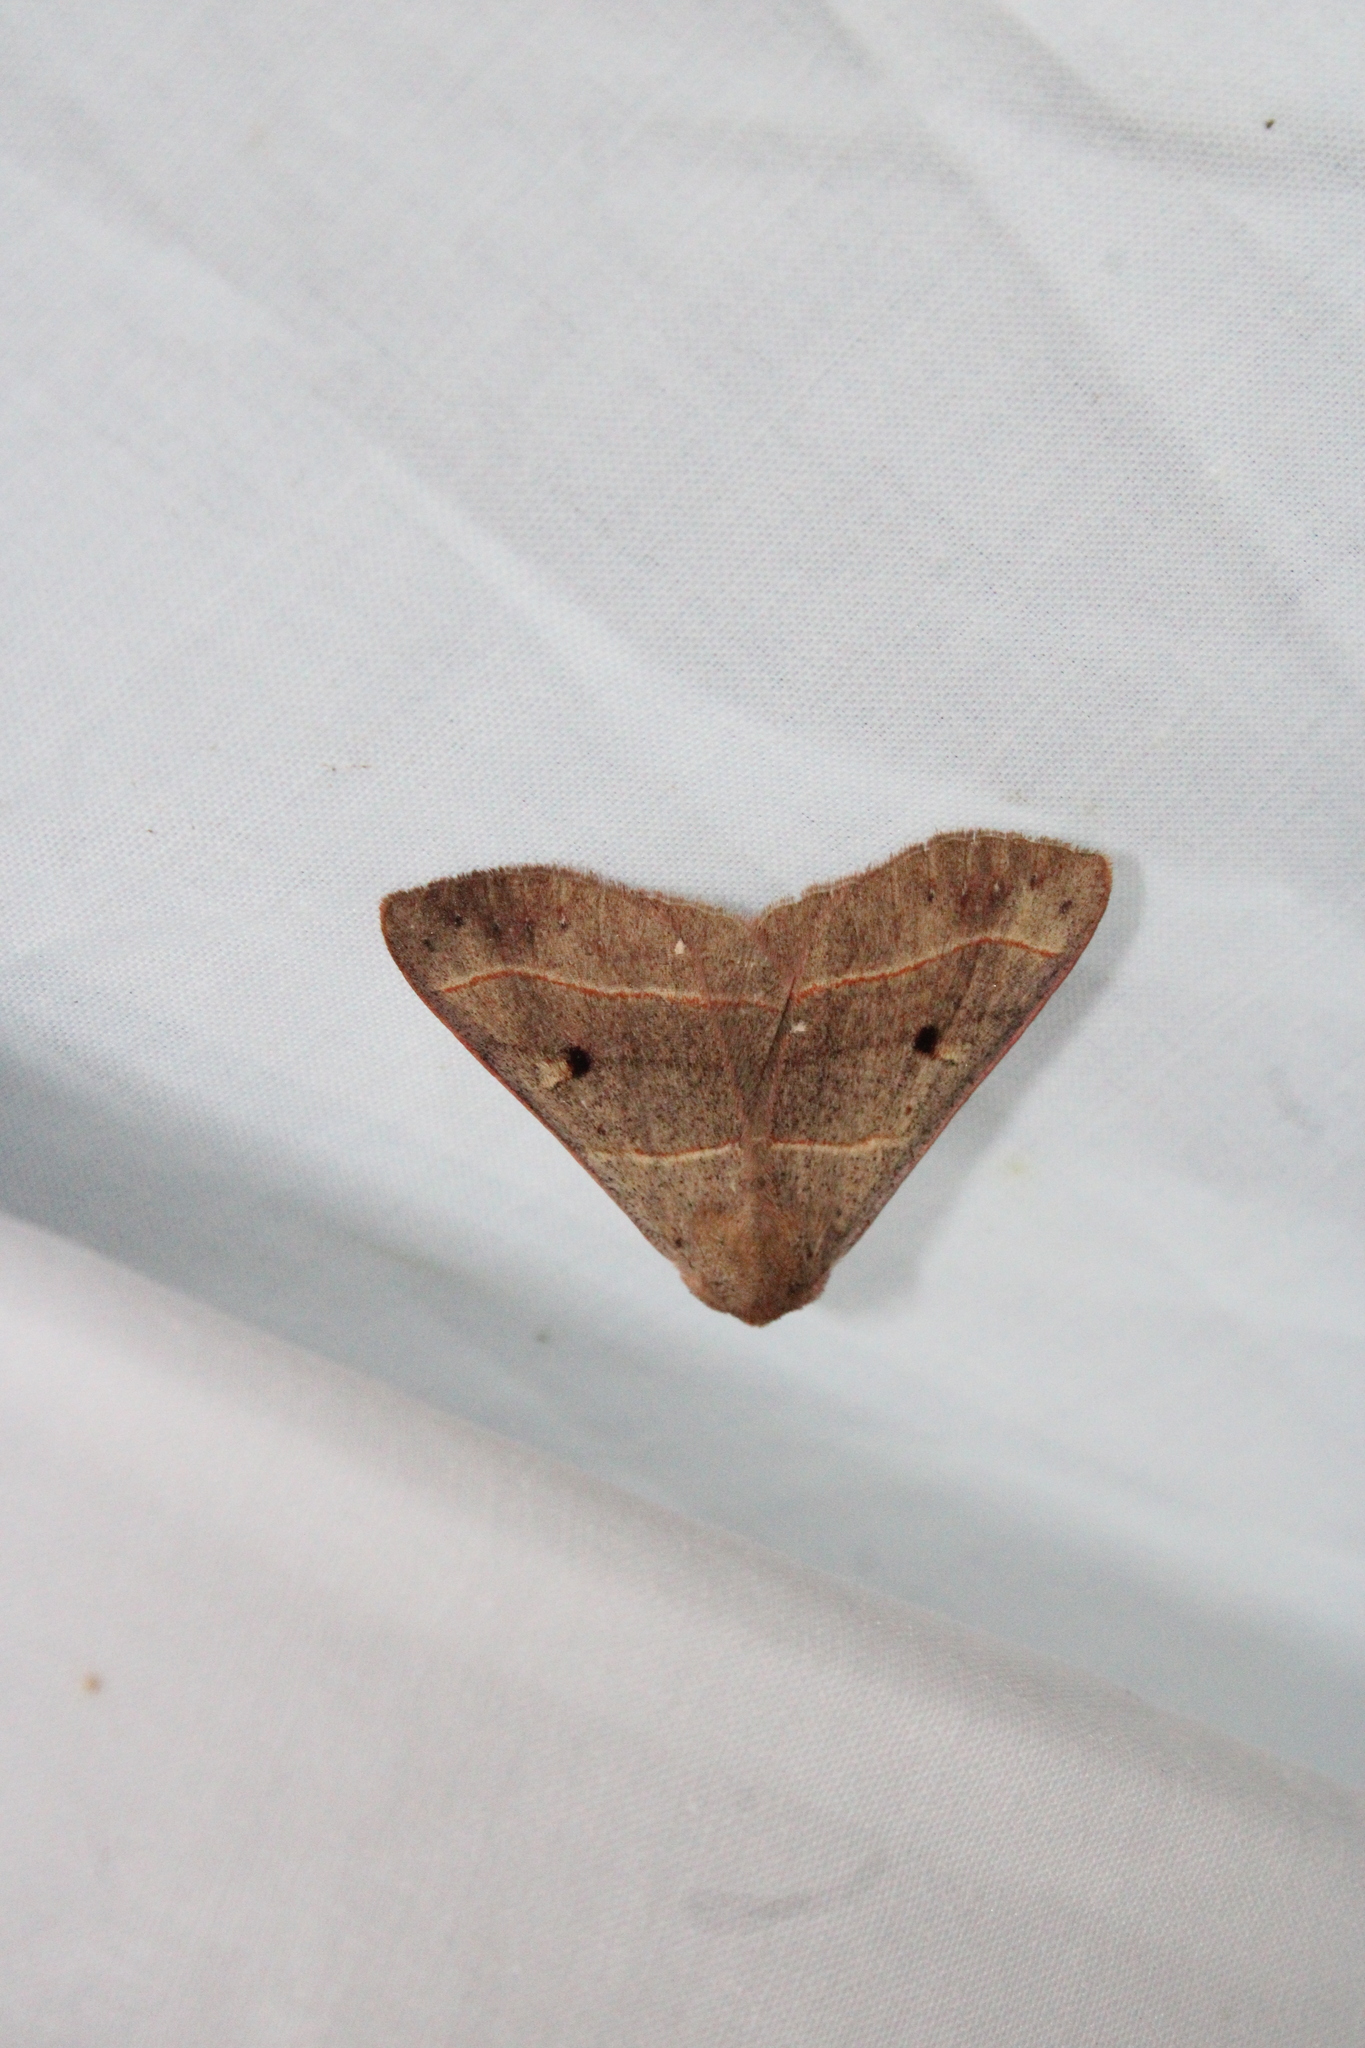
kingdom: Animalia
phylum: Arthropoda
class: Insecta
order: Lepidoptera
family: Erebidae
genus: Panopoda
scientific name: Panopoda rufimargo
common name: Red-lined panopoda moth
